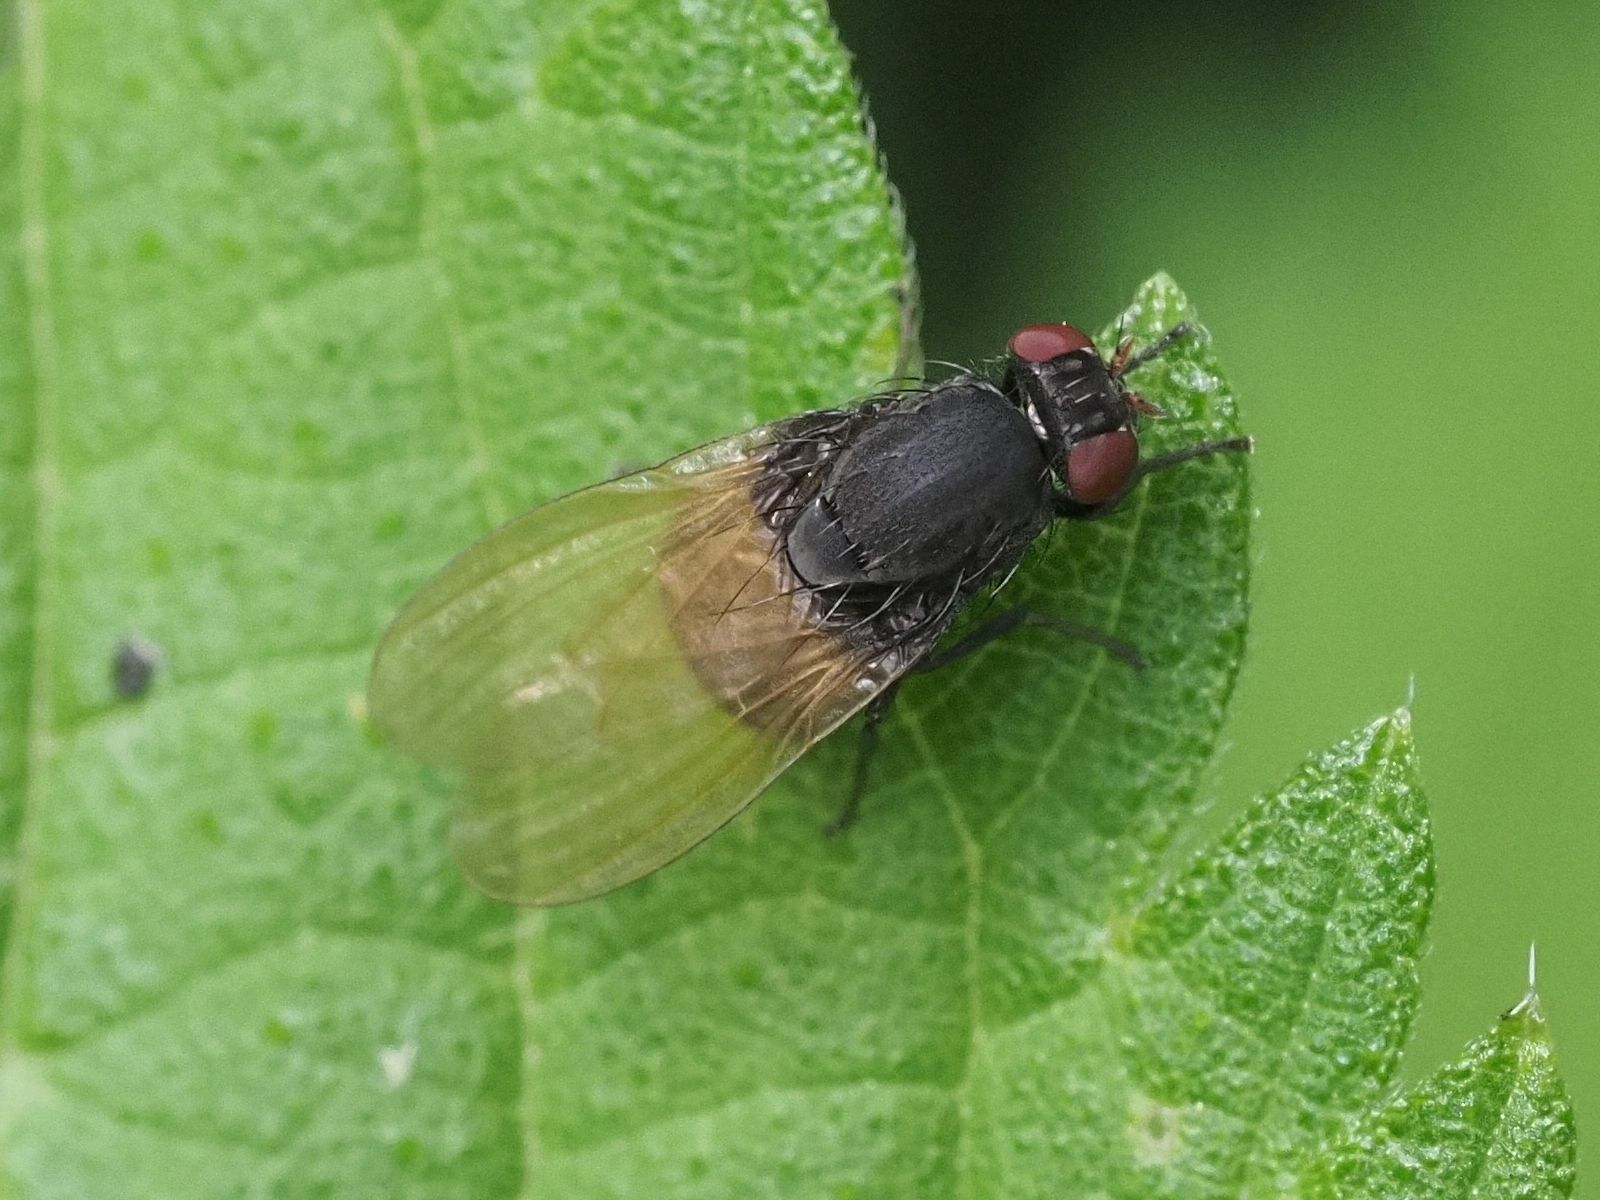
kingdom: Animalia
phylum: Arthropoda
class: Insecta
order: Diptera
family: Lauxaniidae
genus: Minettia
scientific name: Minettia longipennis
